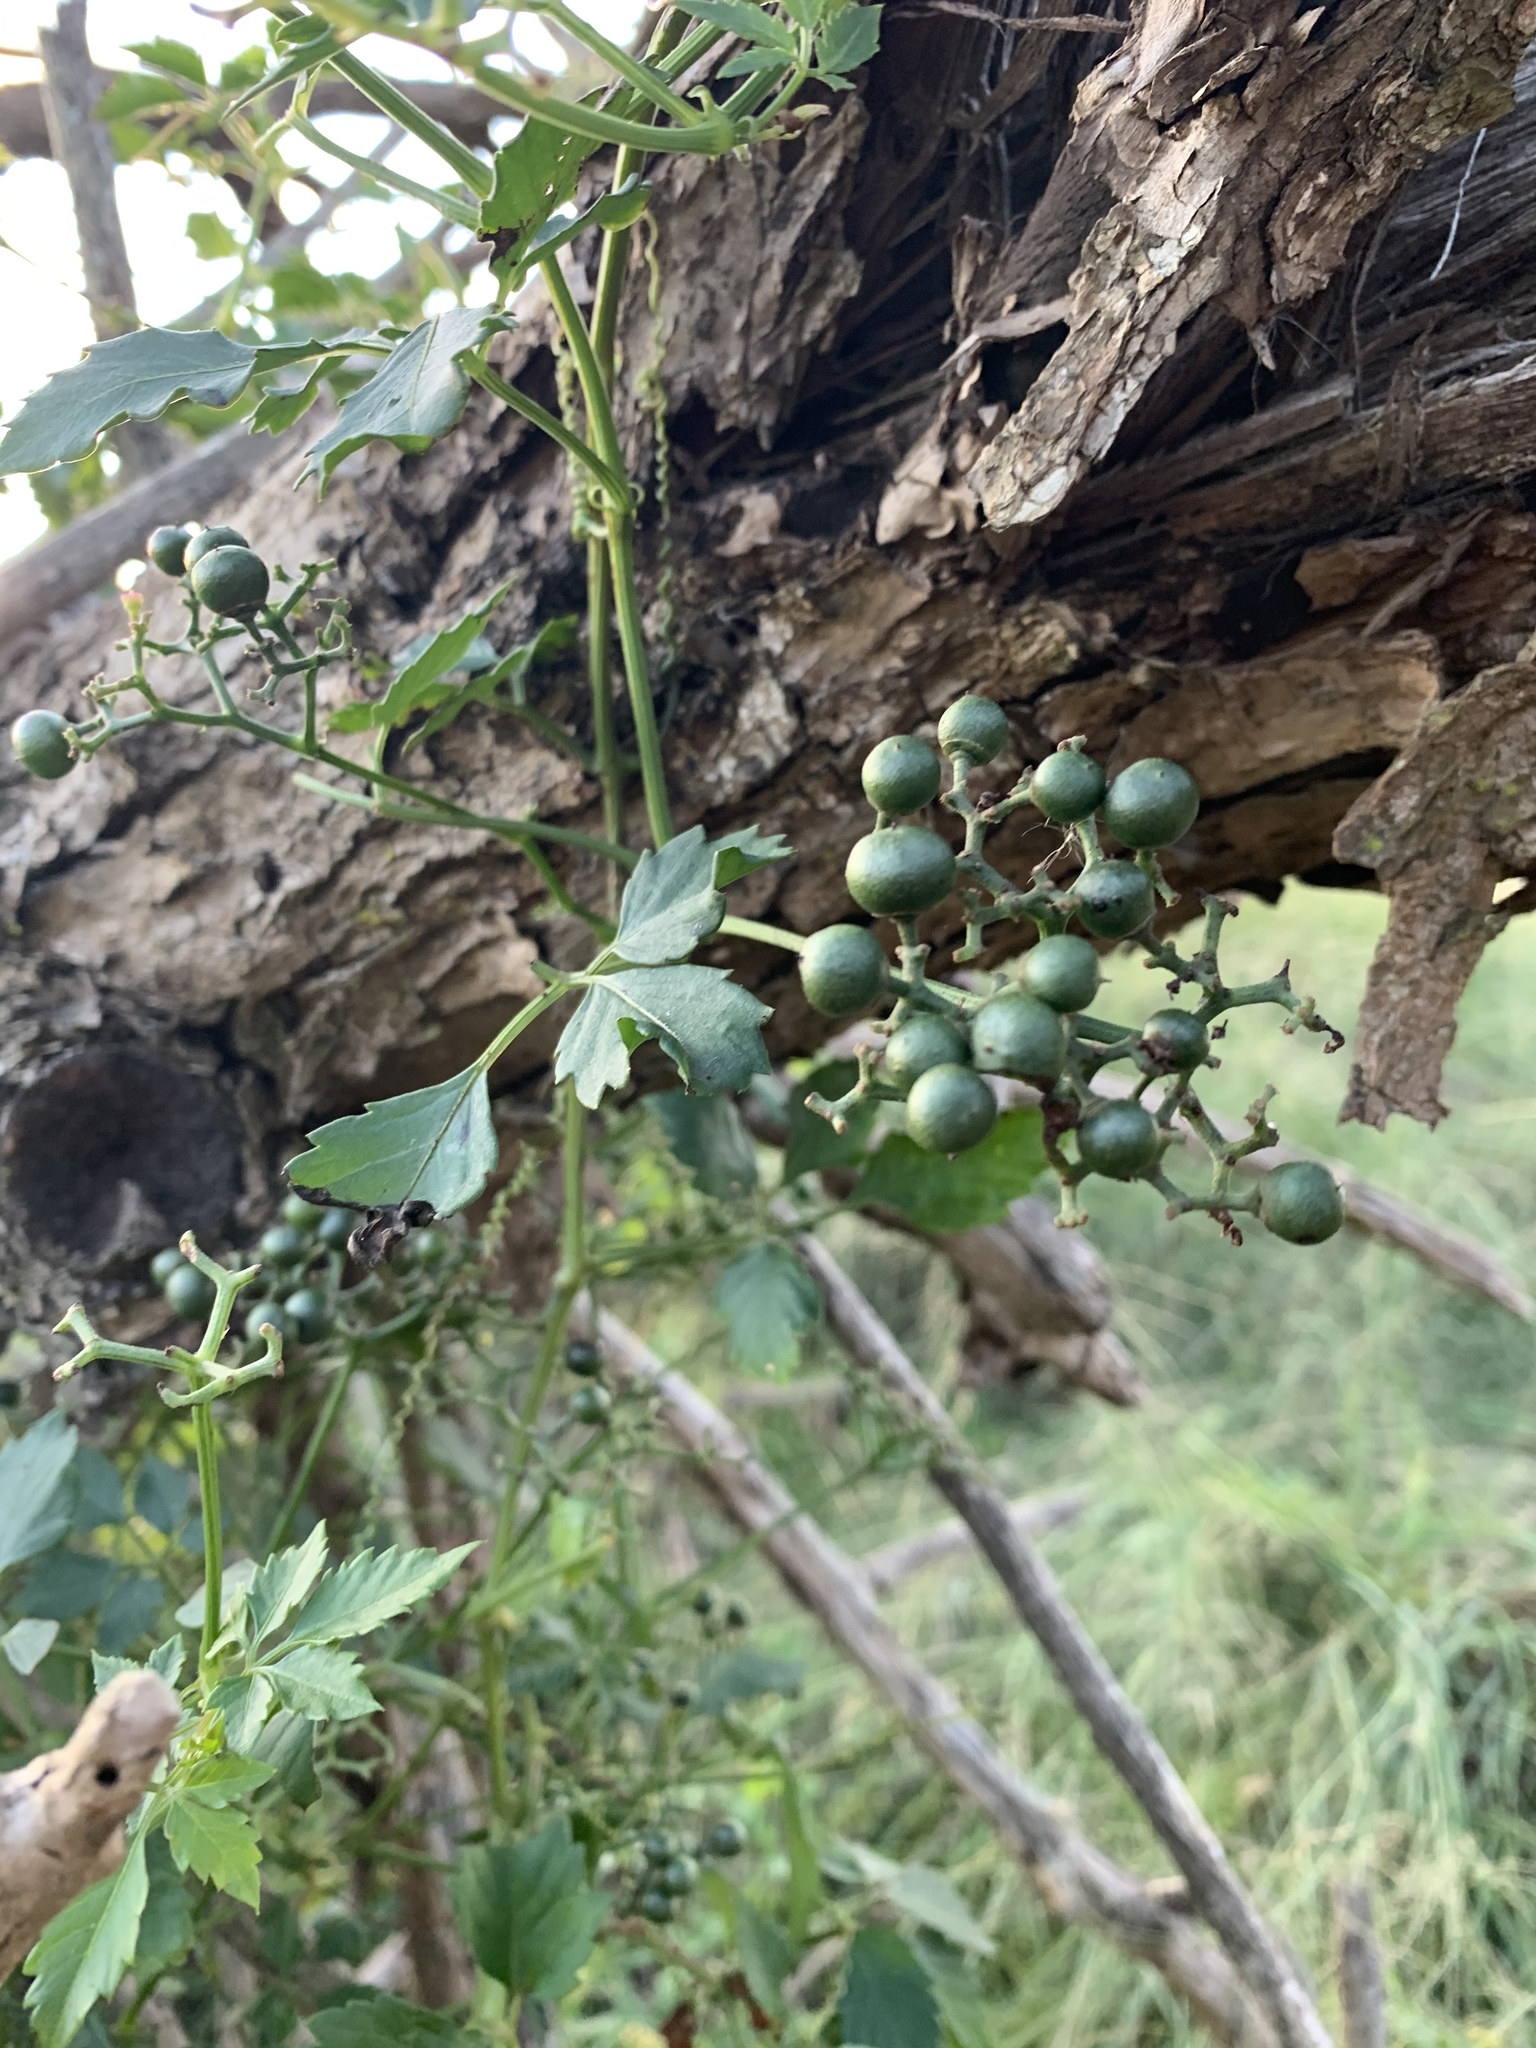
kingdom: Plantae
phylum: Tracheophyta
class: Magnoliopsida
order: Vitales
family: Vitaceae
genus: Causonis
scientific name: Causonis clematidea
